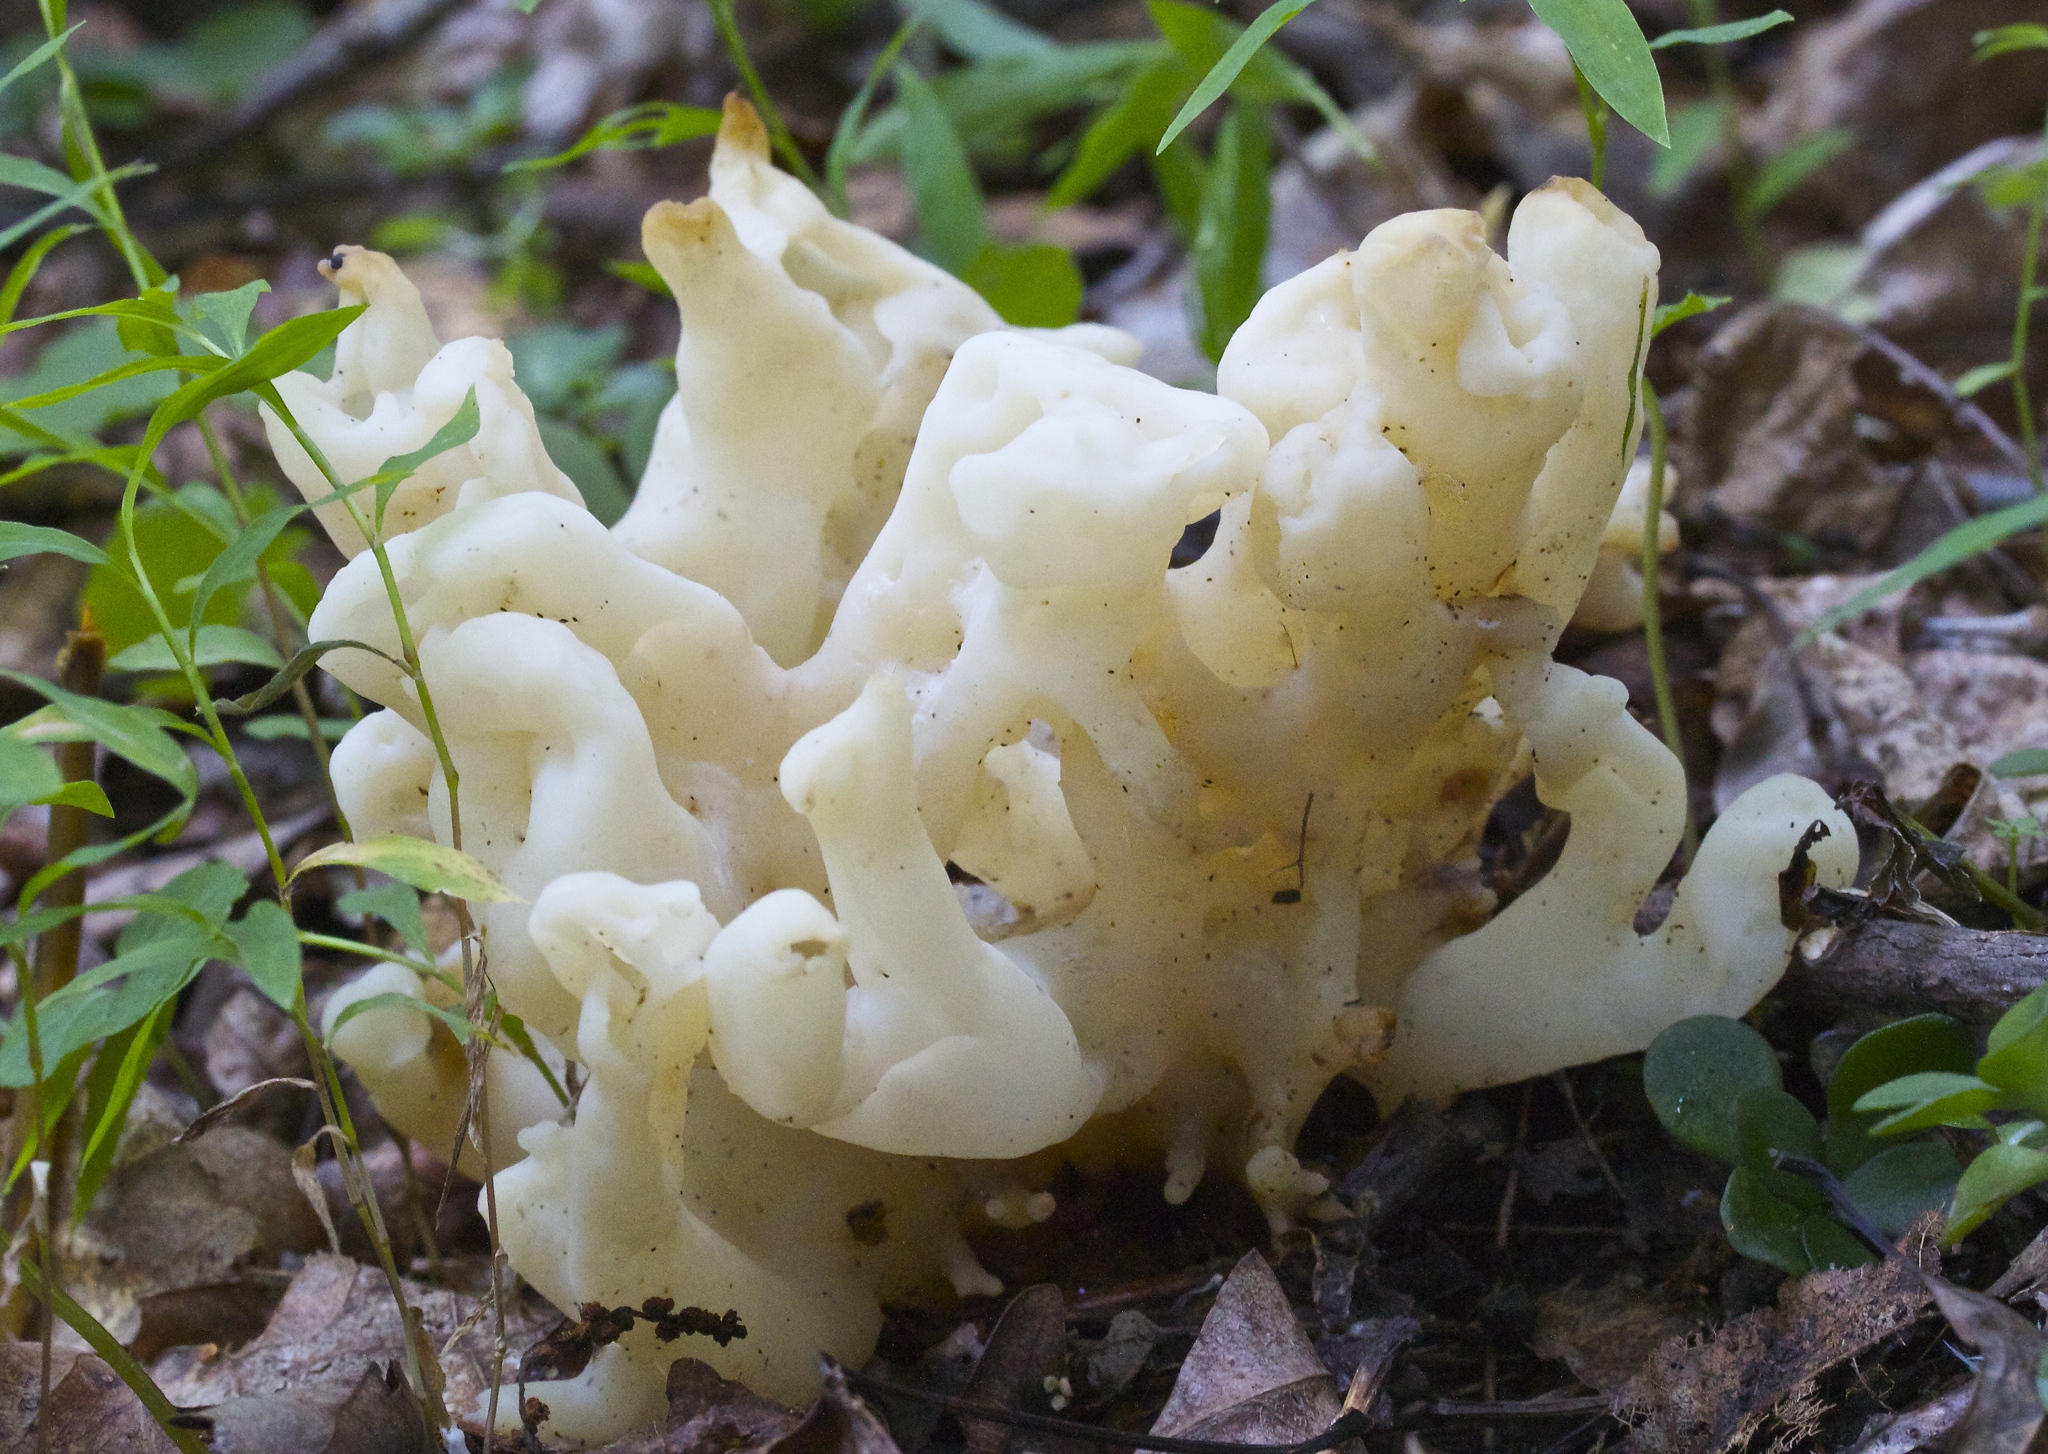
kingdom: Fungi
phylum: Basidiomycota
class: Agaricomycetes
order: Sebacinales
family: Sebacinaceae
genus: Sebacina
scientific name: Sebacina sparassoidea
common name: White coral jelly fungus
